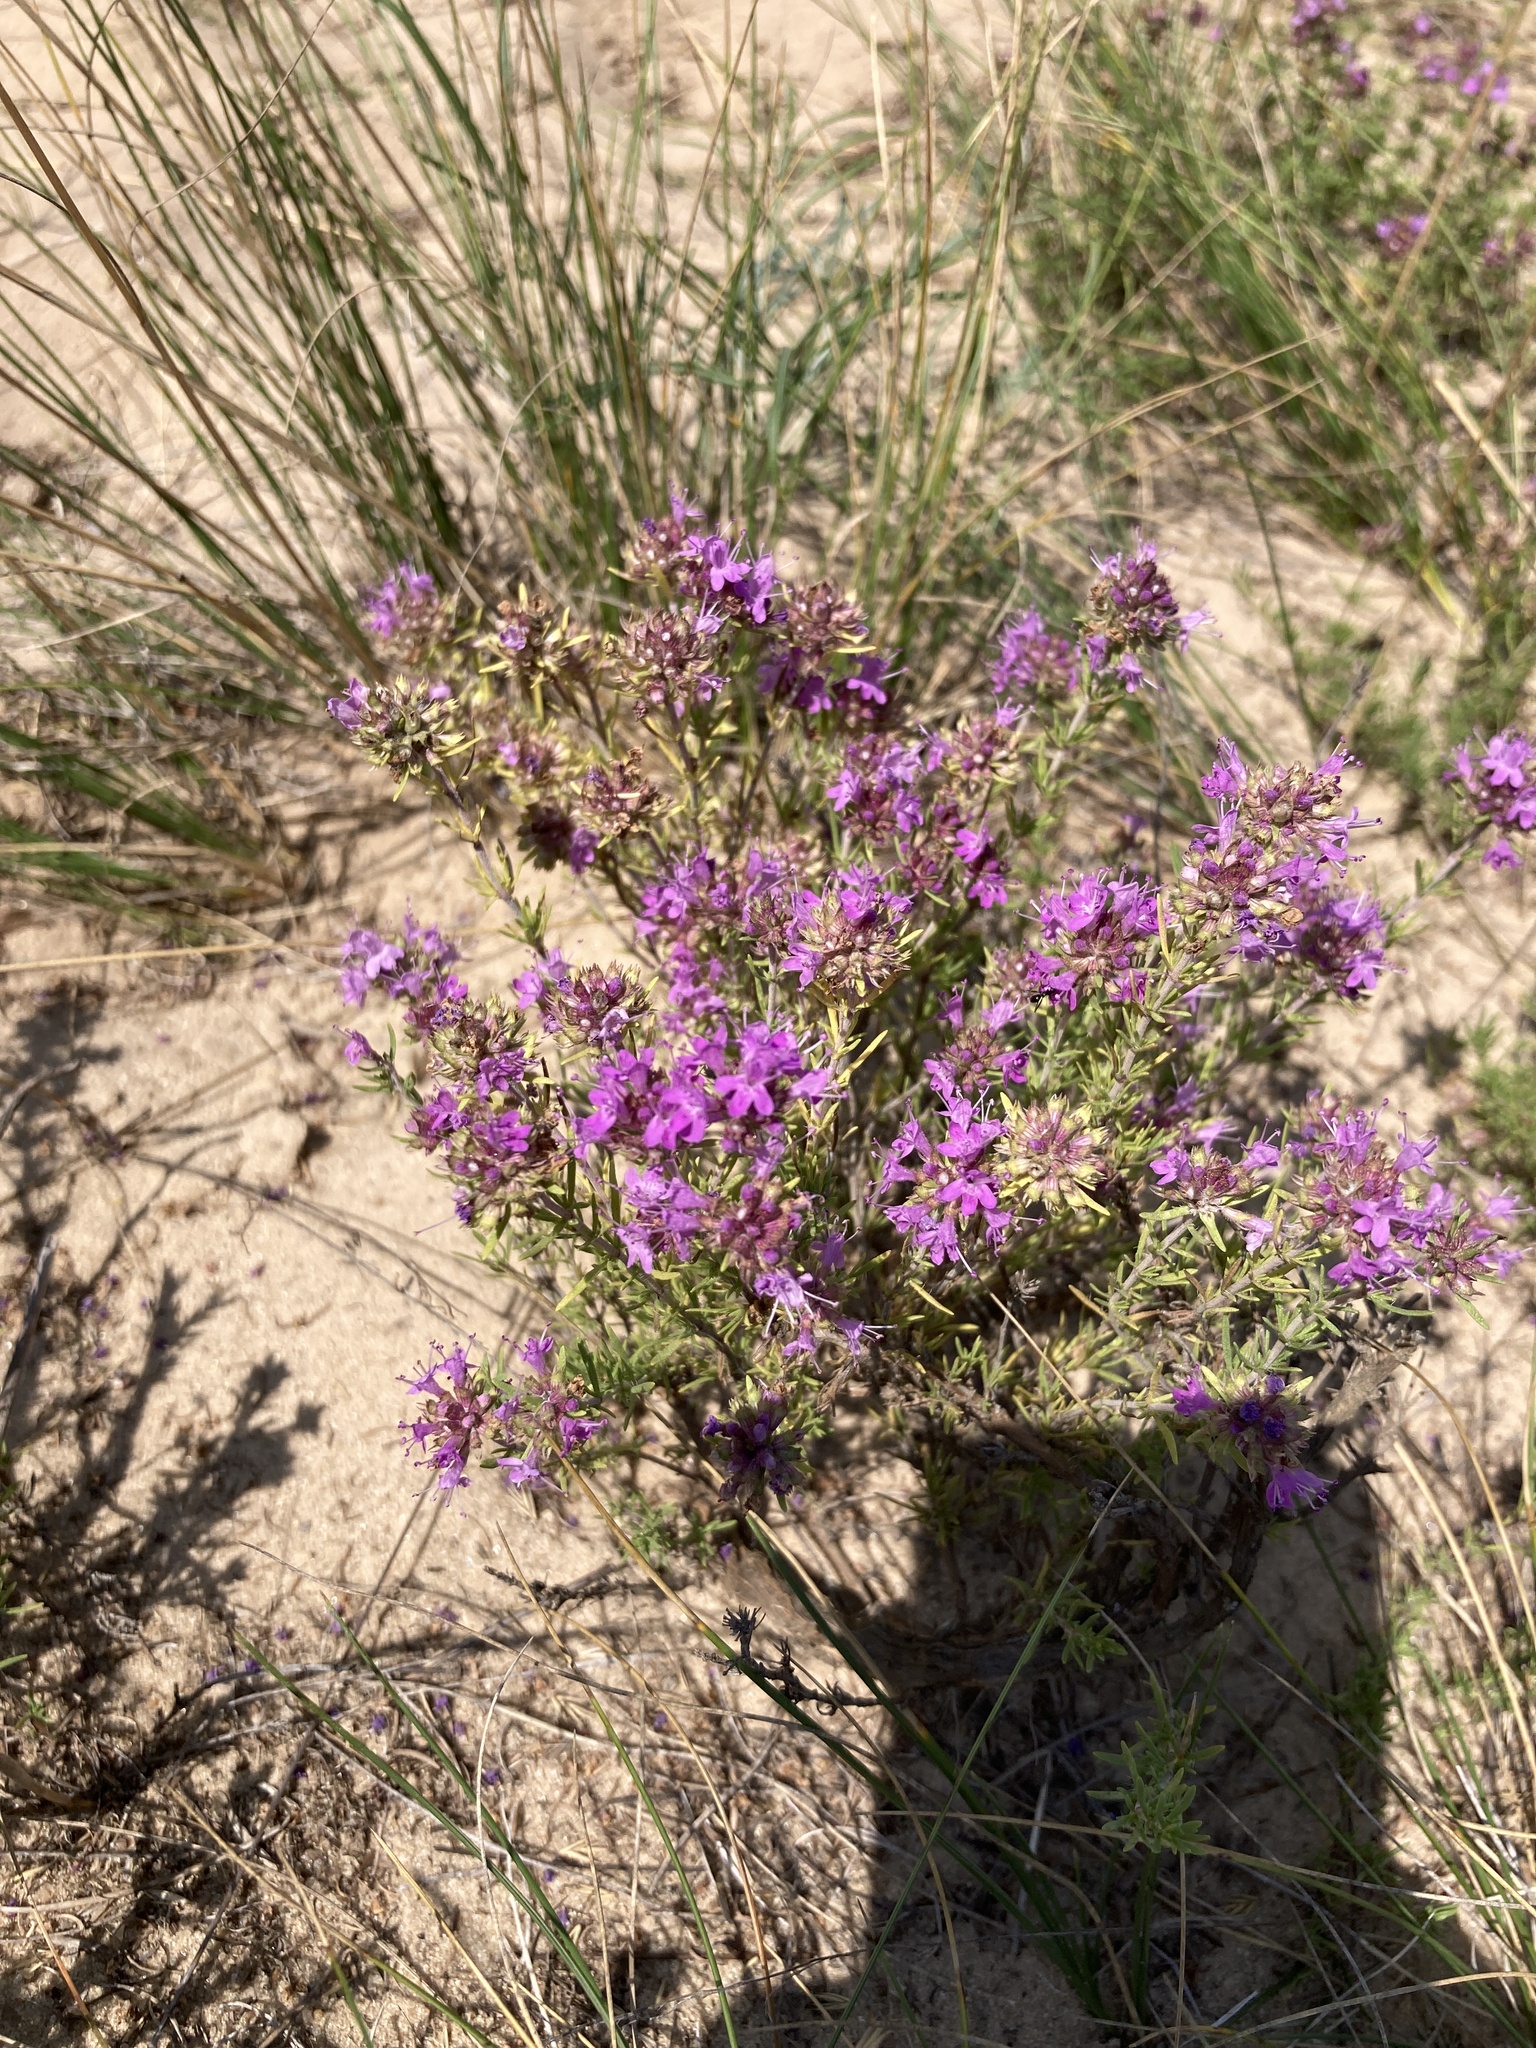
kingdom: Plantae
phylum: Tracheophyta
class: Magnoliopsida
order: Lamiales
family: Lamiaceae
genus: Thymus
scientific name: Thymus pallasianus
